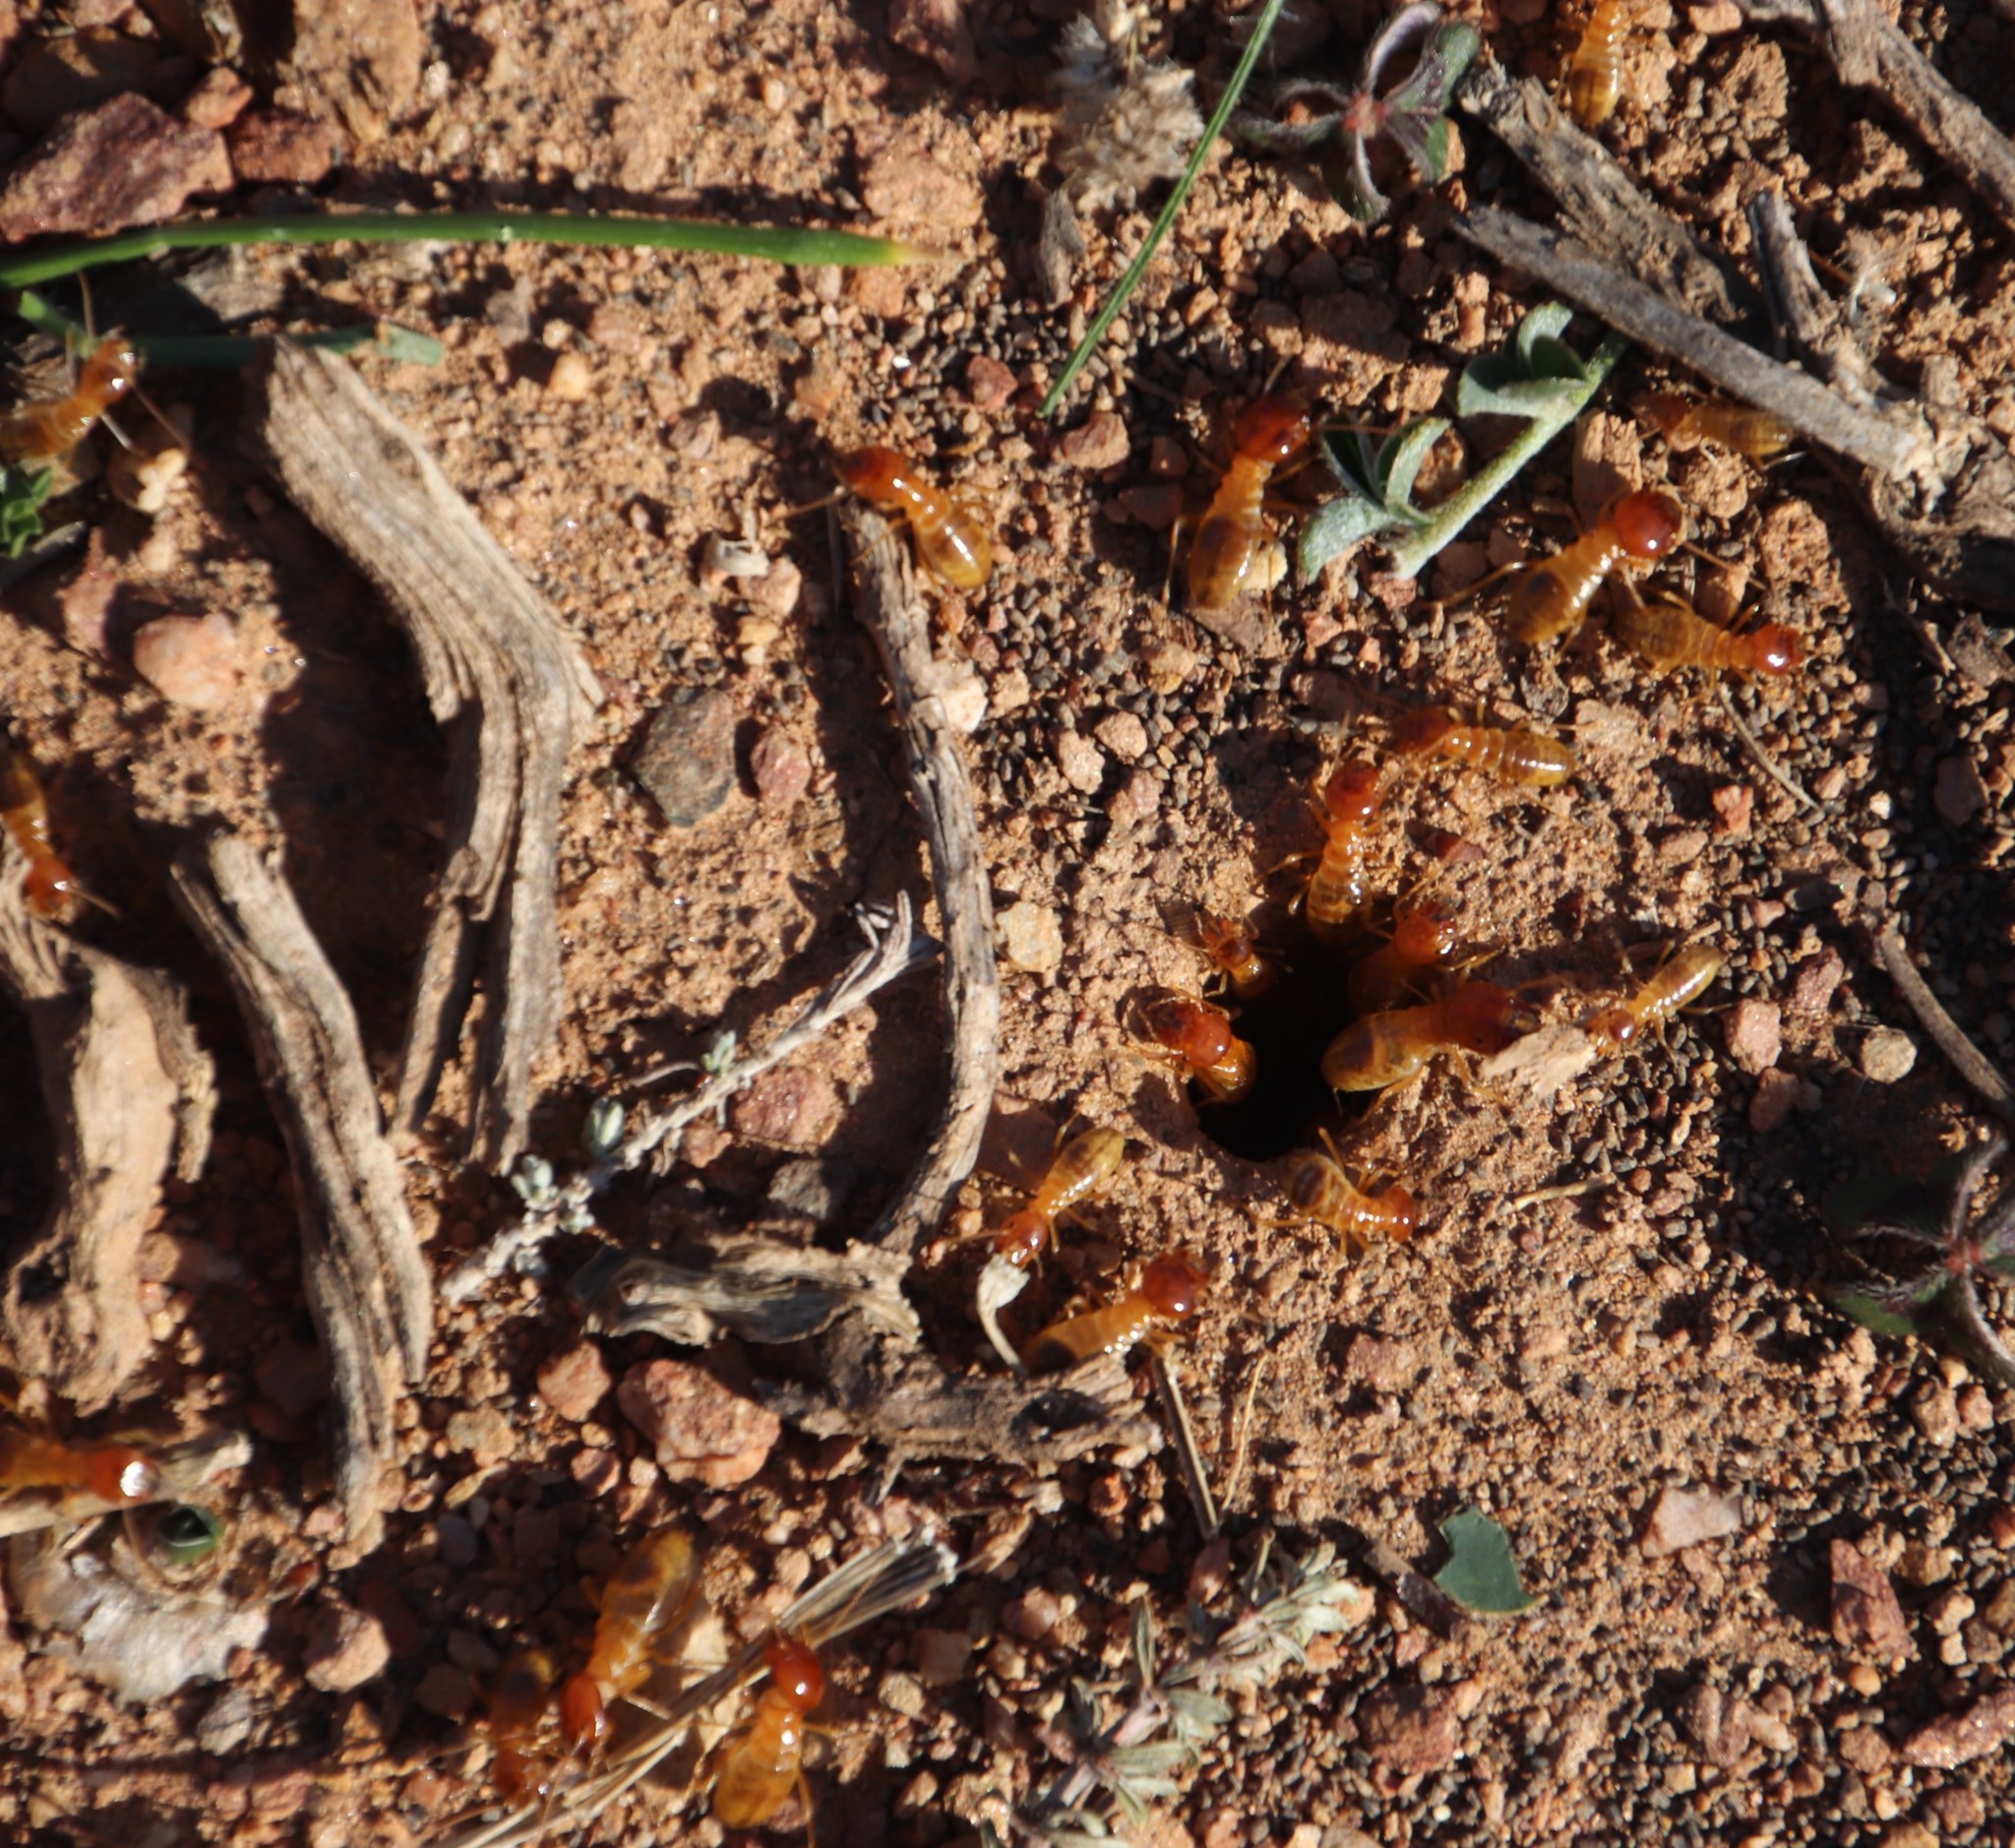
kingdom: Animalia
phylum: Arthropoda
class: Insecta
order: Blattodea
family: Hodotermitidae
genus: Microhodotermes
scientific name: Microhodotermes viator
